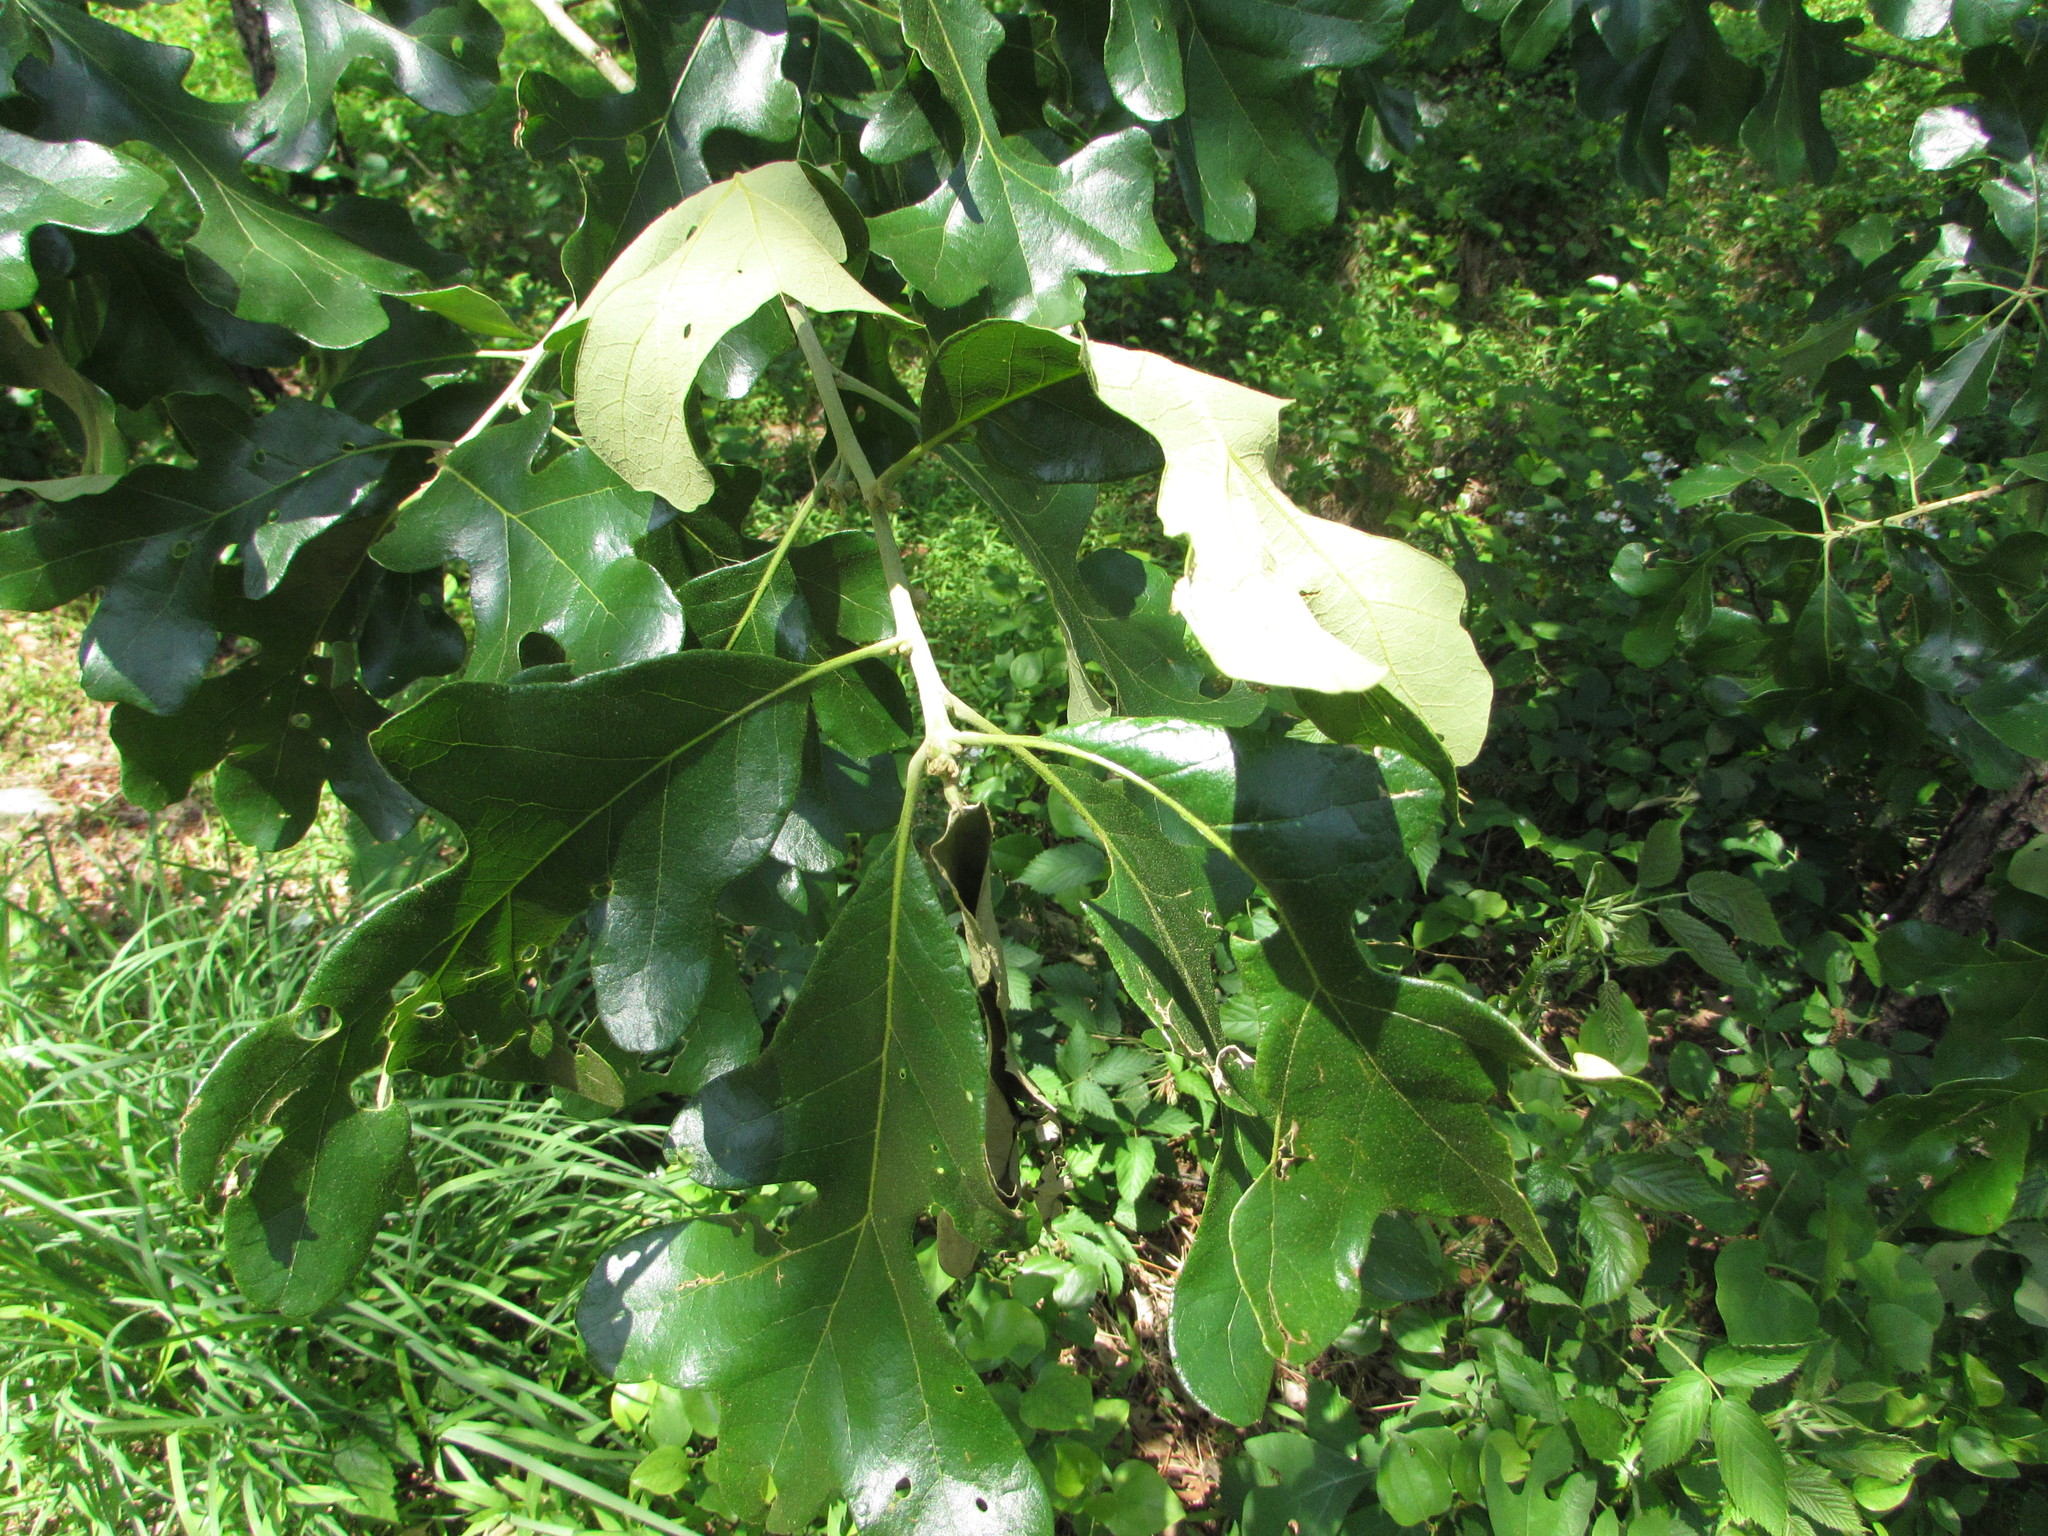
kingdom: Plantae
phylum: Tracheophyta
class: Magnoliopsida
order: Fagales
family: Fagaceae
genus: Quercus
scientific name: Quercus stellata
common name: Post oak
